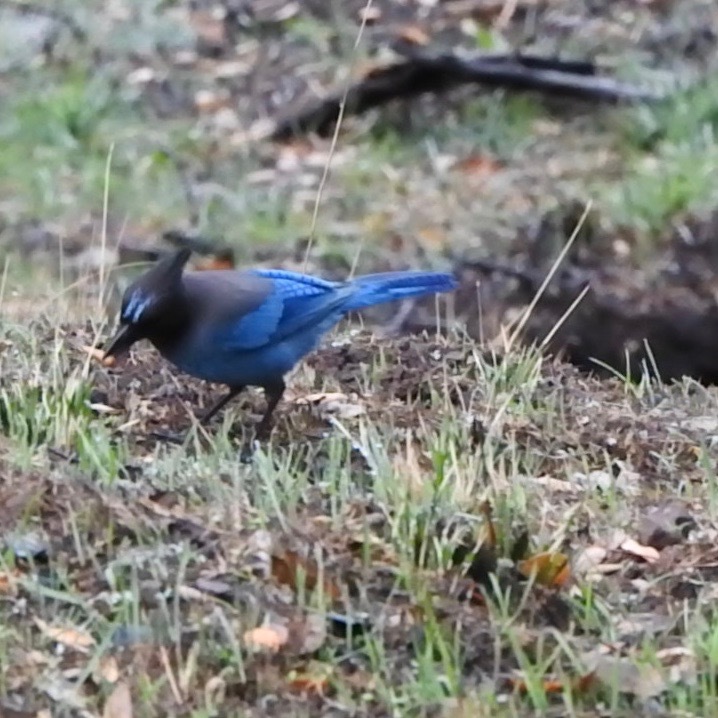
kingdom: Plantae
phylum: Tracheophyta
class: Magnoliopsida
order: Fagales
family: Fagaceae
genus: Quercus
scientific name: Quercus agrifolia
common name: California live oak
